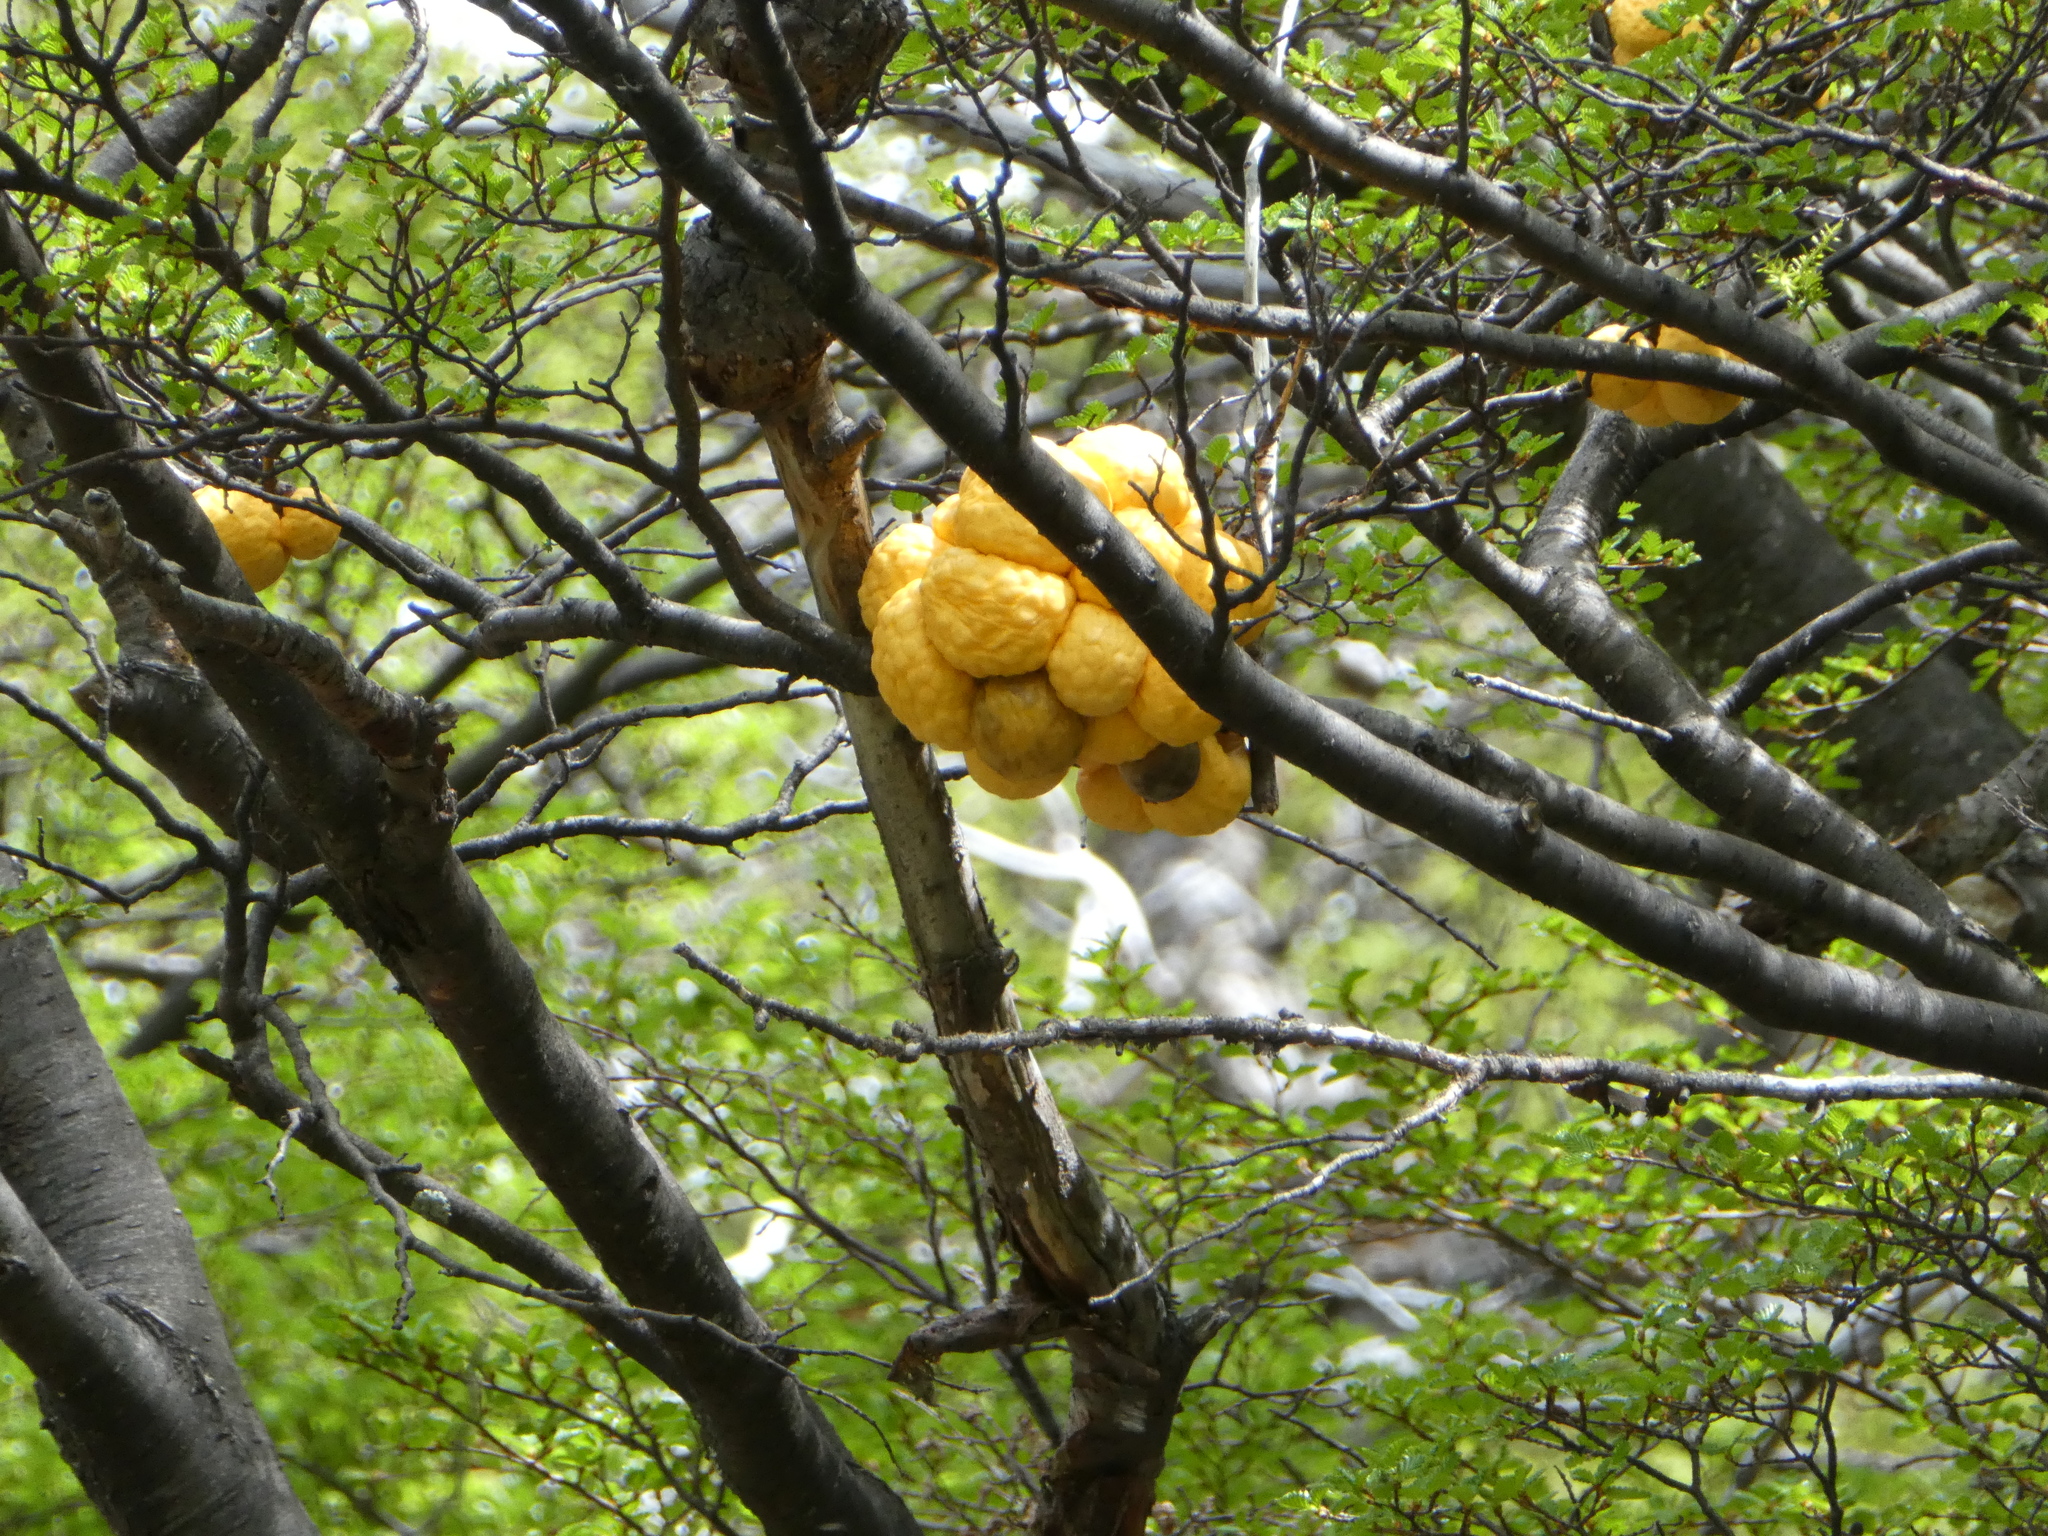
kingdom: Fungi
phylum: Ascomycota
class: Leotiomycetes
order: Cyttariales
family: Cyttariaceae
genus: Cyttaria
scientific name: Cyttaria hariotii
